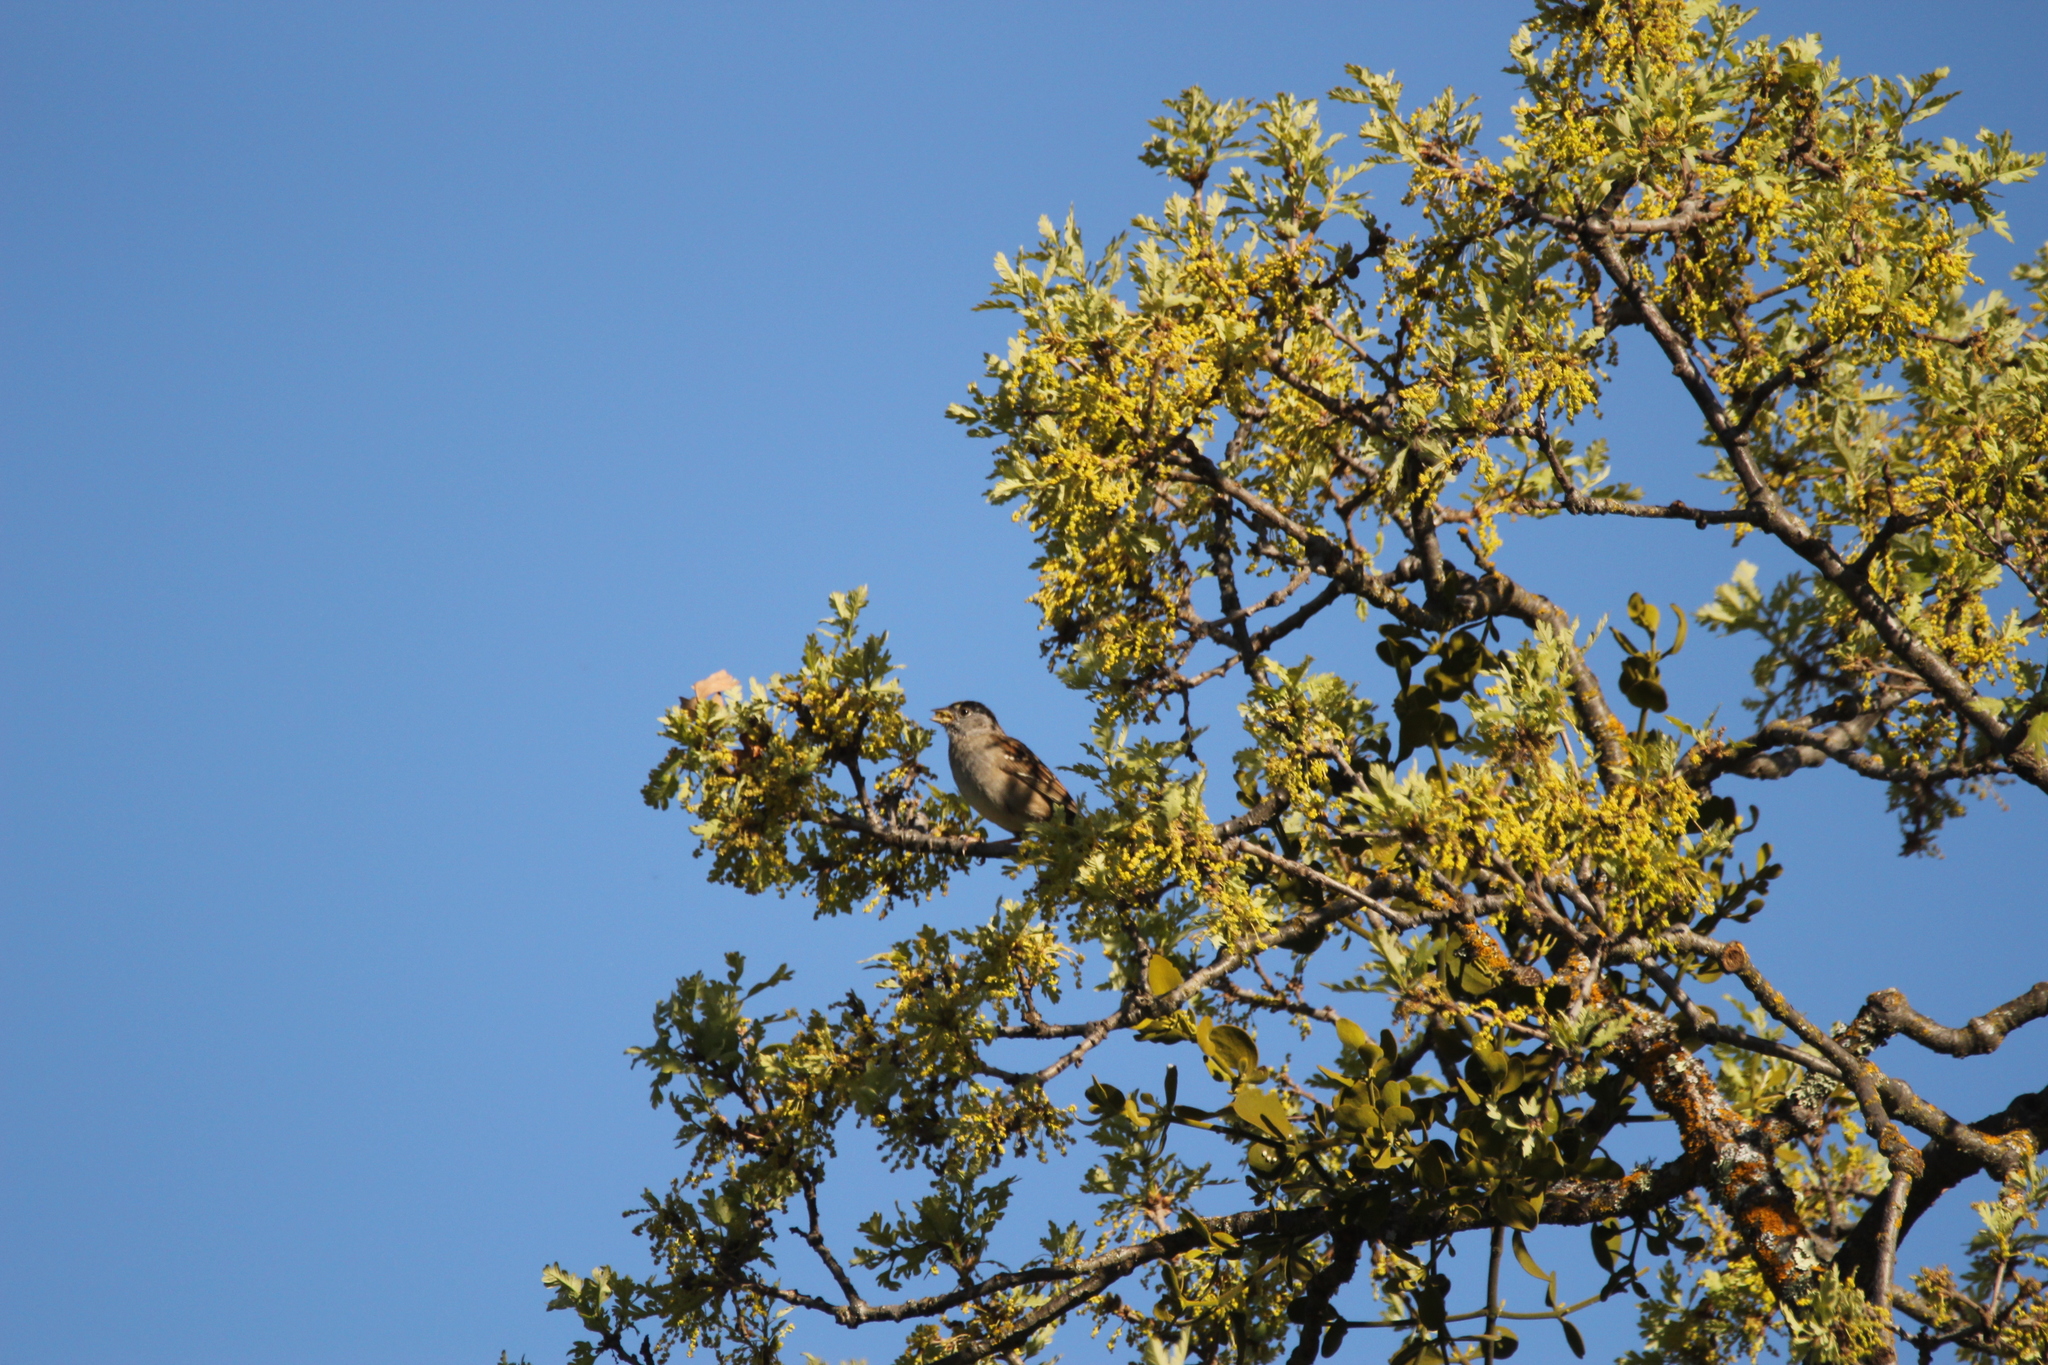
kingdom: Animalia
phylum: Chordata
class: Aves
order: Passeriformes
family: Passerellidae
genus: Zonotrichia
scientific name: Zonotrichia atricapilla
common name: Golden-crowned sparrow
